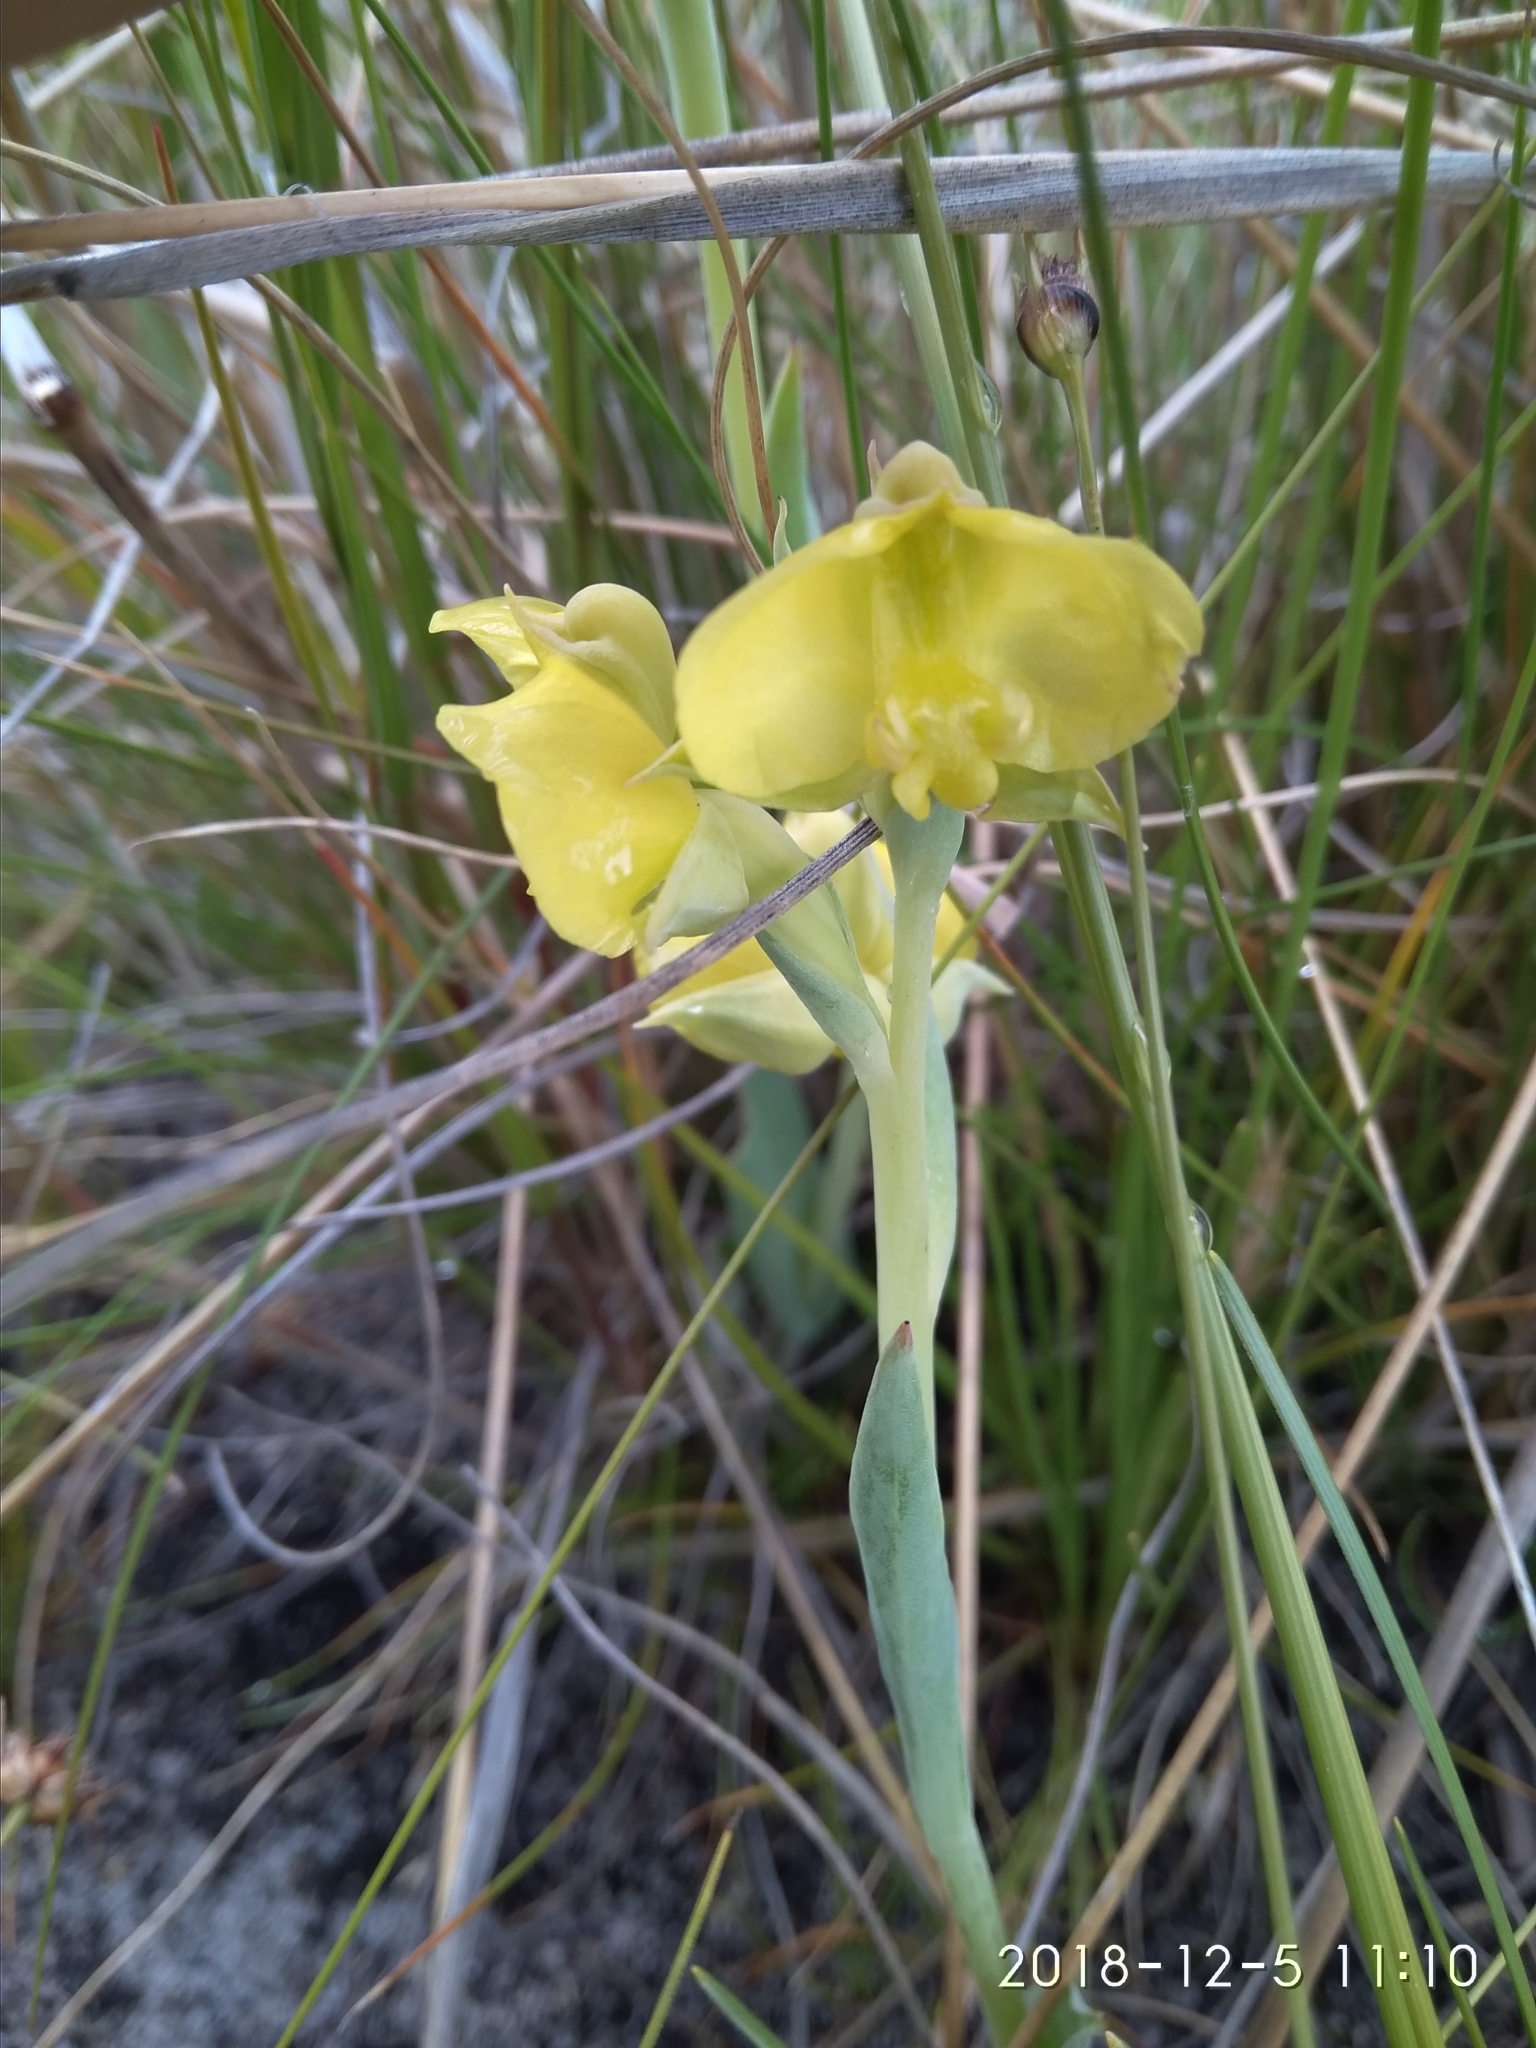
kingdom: Plantae
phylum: Tracheophyta
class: Liliopsida
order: Asparagales
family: Orchidaceae
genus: Pterygodium
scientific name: Pterygodium acutifolium
